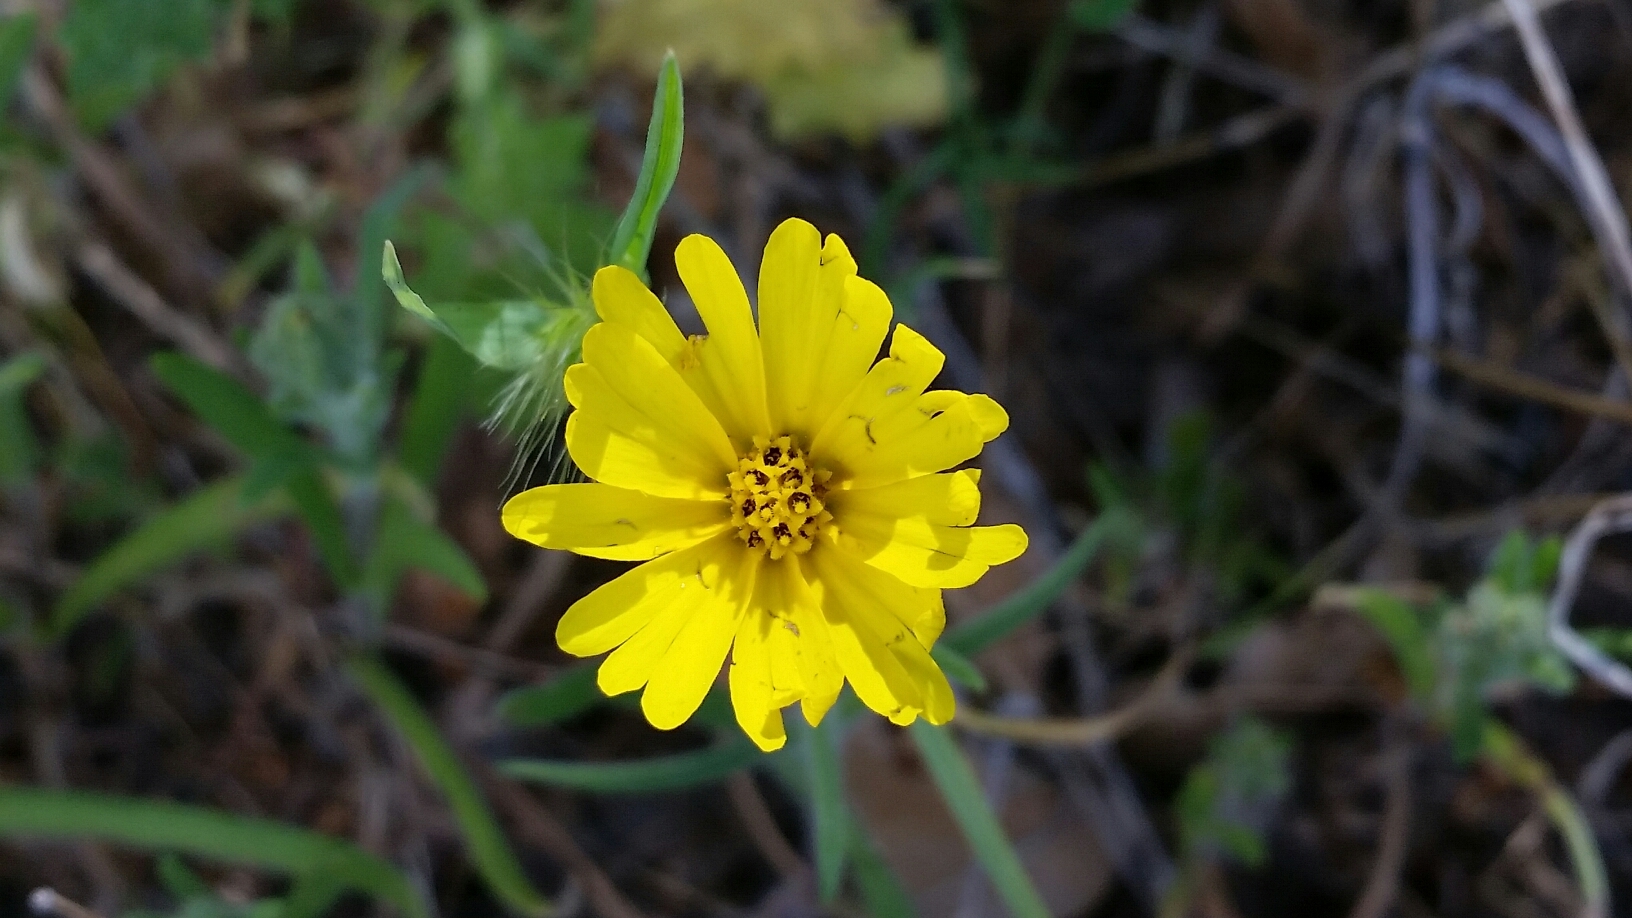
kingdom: Plantae
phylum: Tracheophyta
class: Magnoliopsida
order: Asterales
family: Asteraceae
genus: Madia
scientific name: Madia elegans
